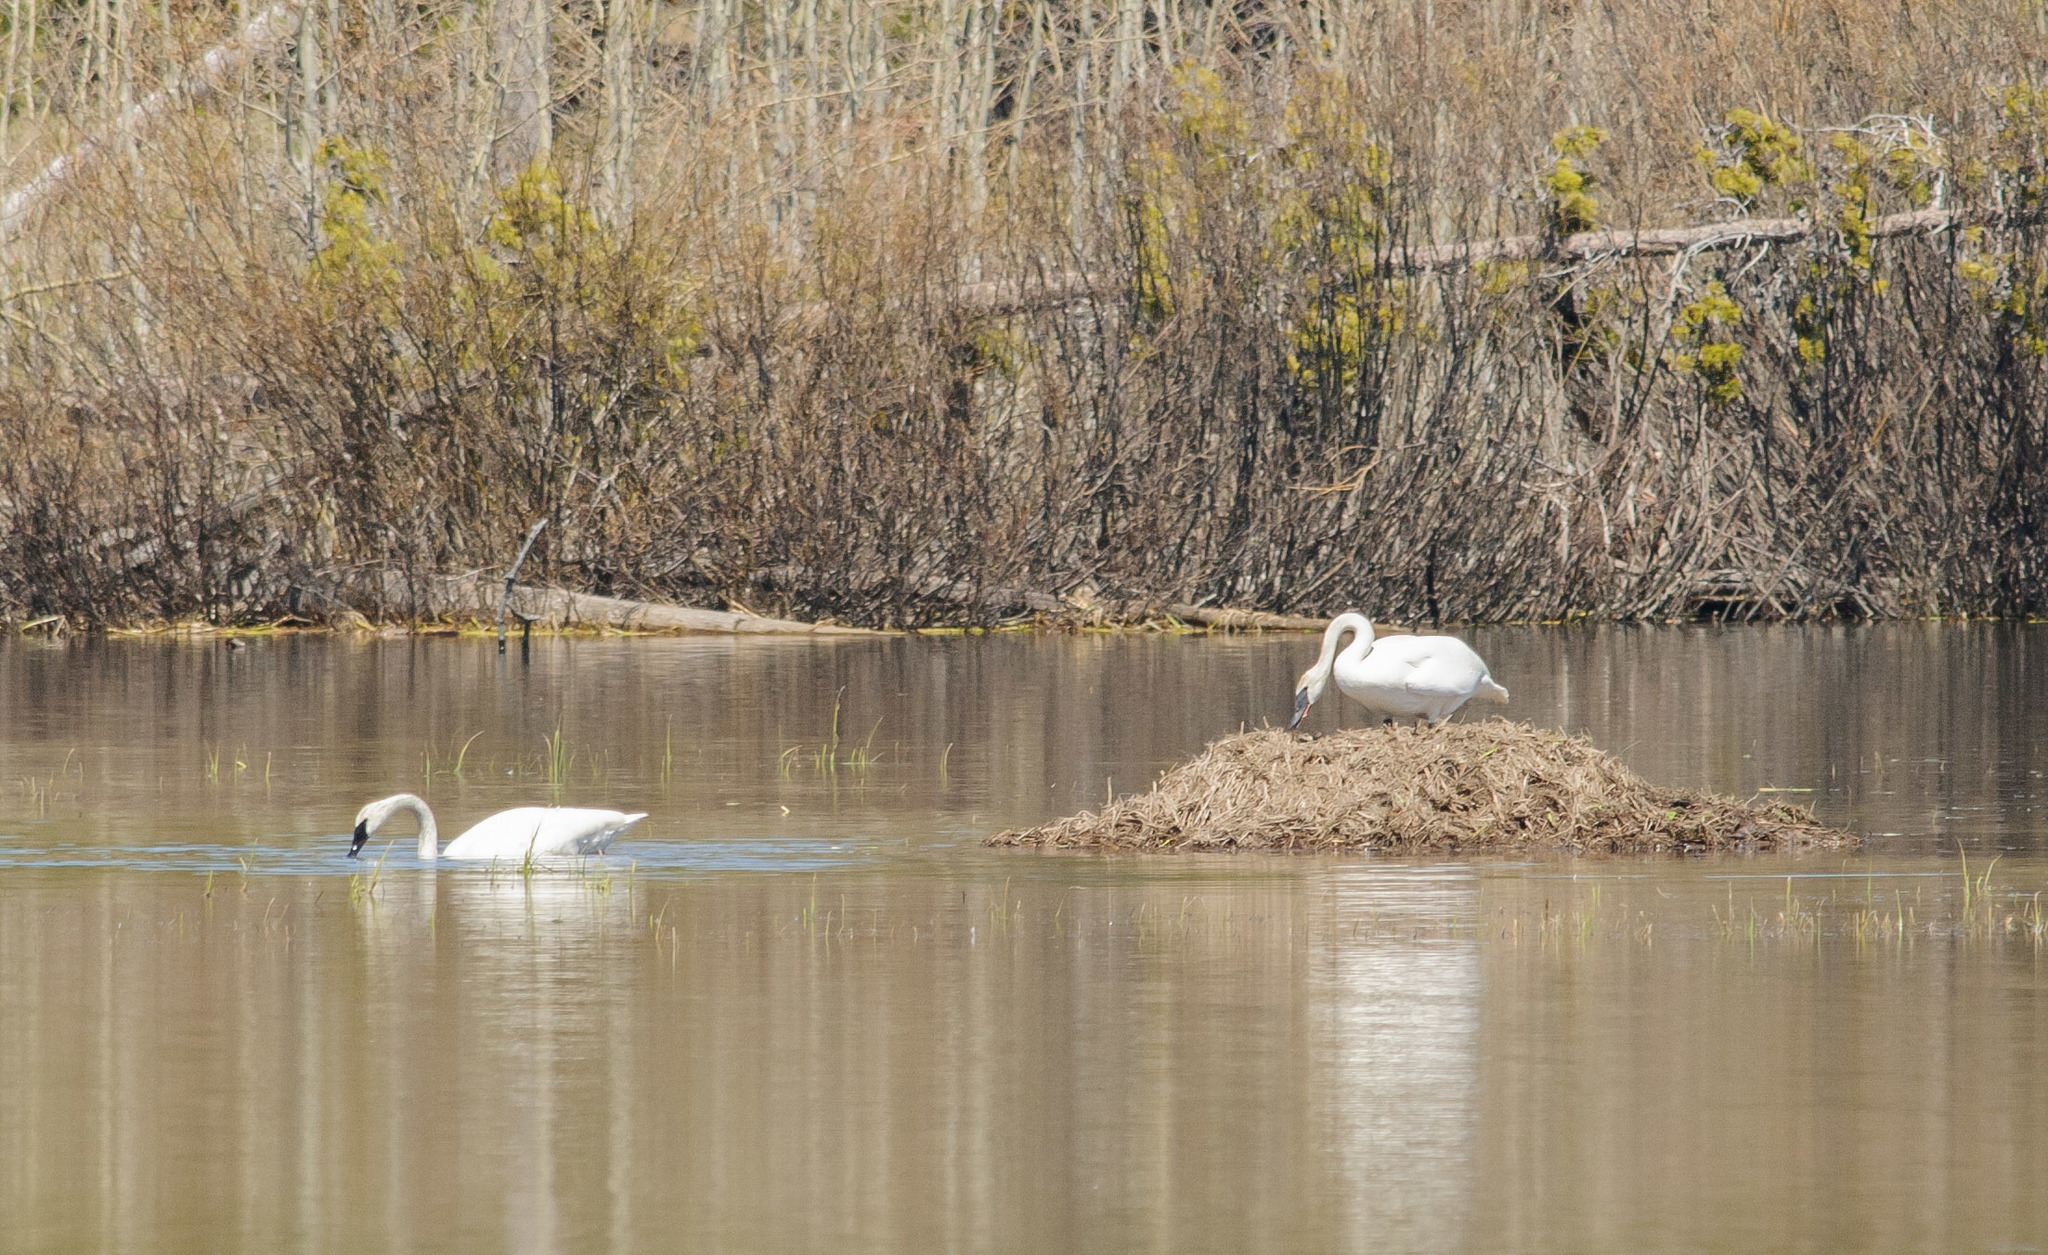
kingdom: Animalia
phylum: Chordata
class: Aves
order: Anseriformes
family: Anatidae
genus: Cygnus
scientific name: Cygnus buccinator
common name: Trumpeter swan
